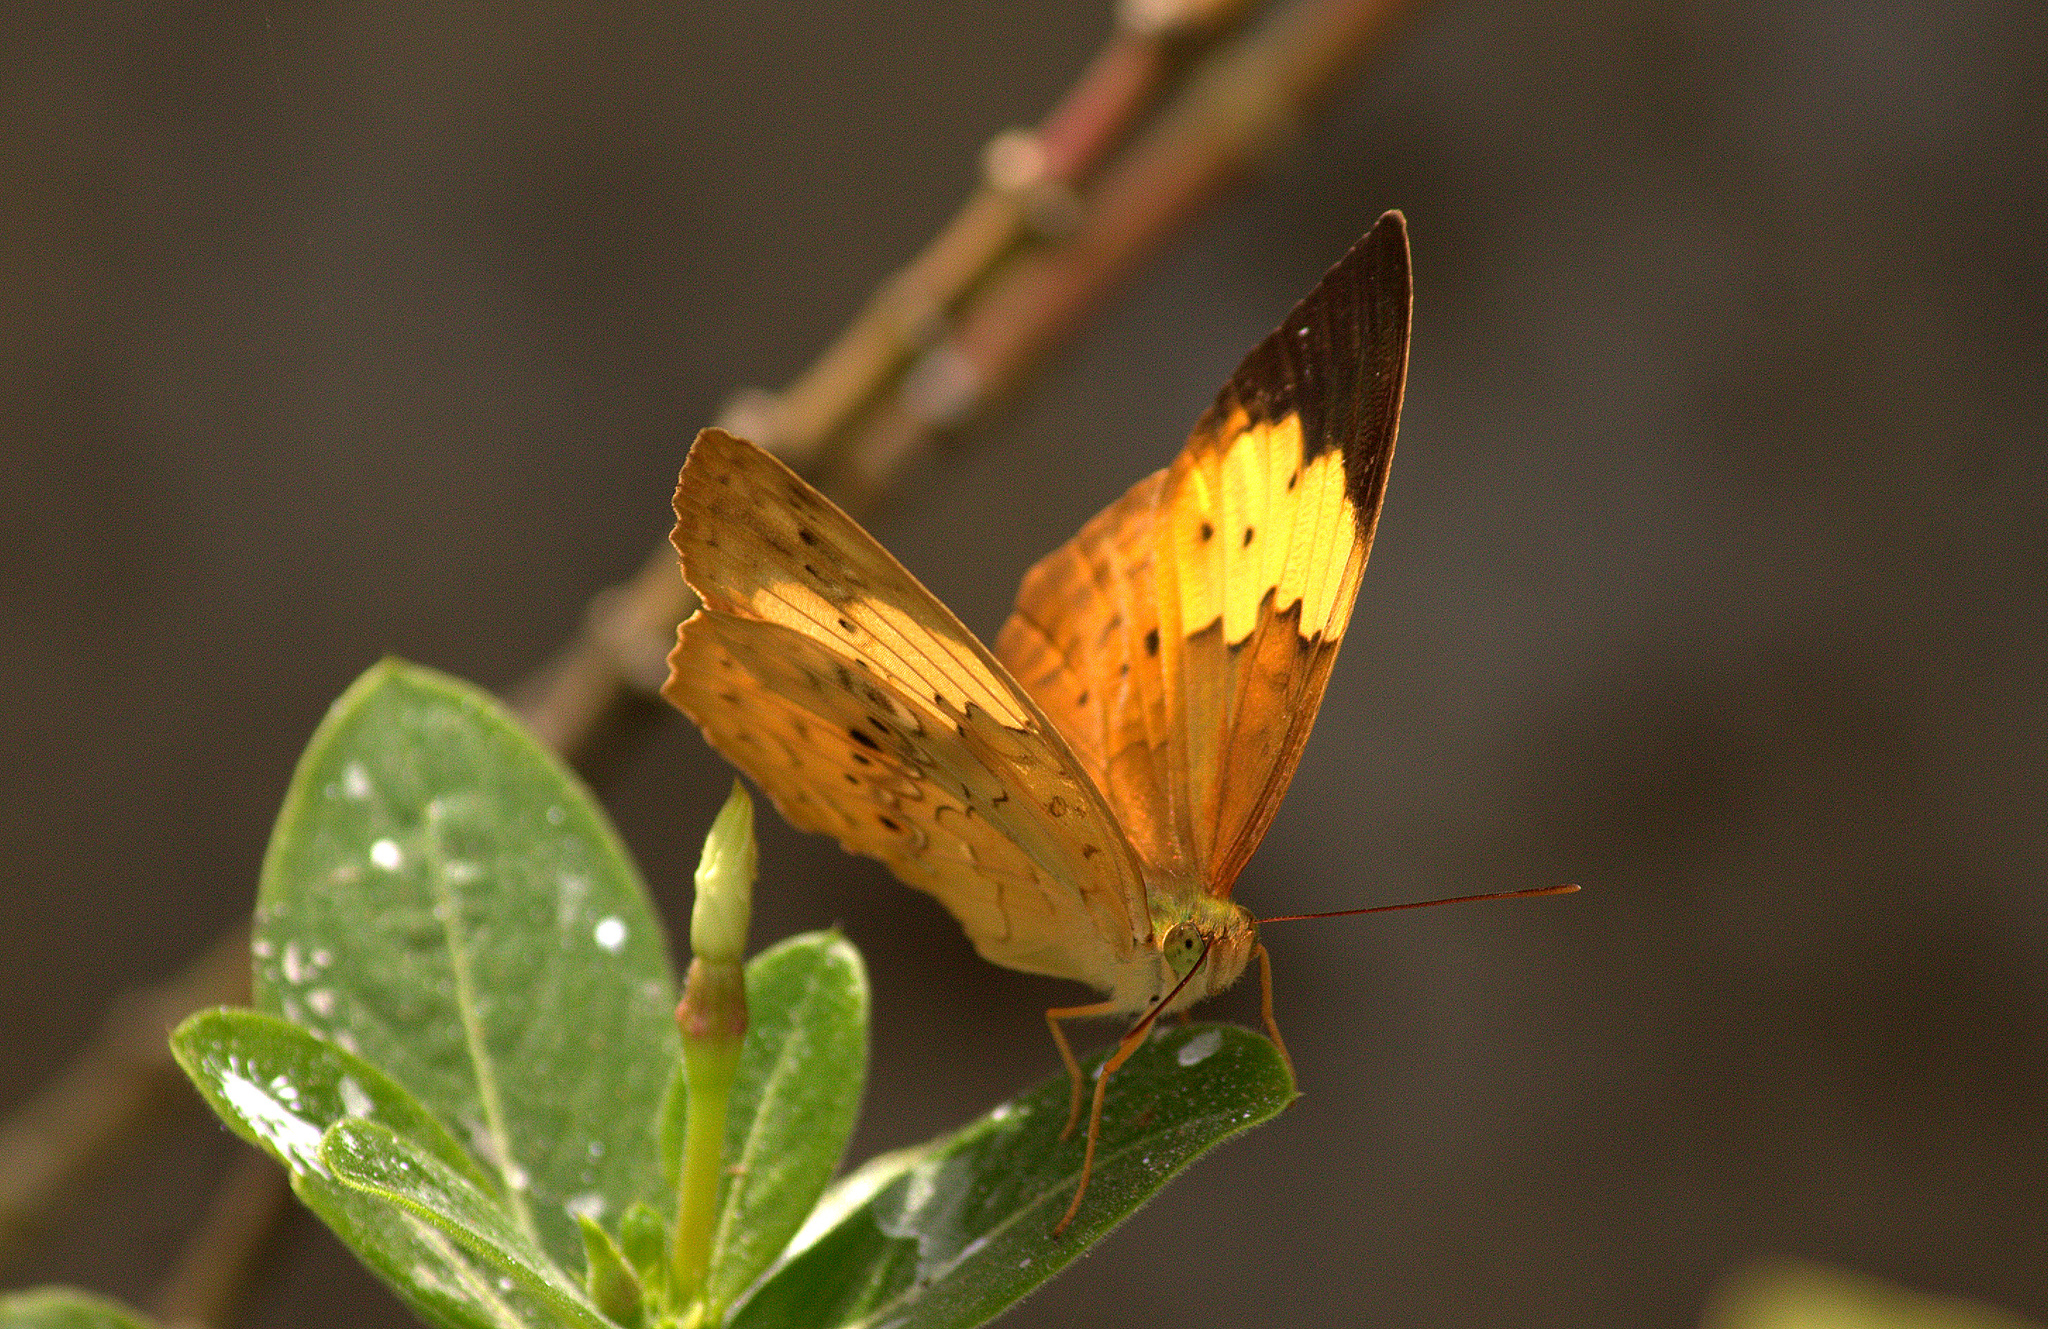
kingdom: Animalia
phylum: Arthropoda
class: Insecta
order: Lepidoptera
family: Nymphalidae
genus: Cupha
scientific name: Cupha erymanthis
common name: Rustic
